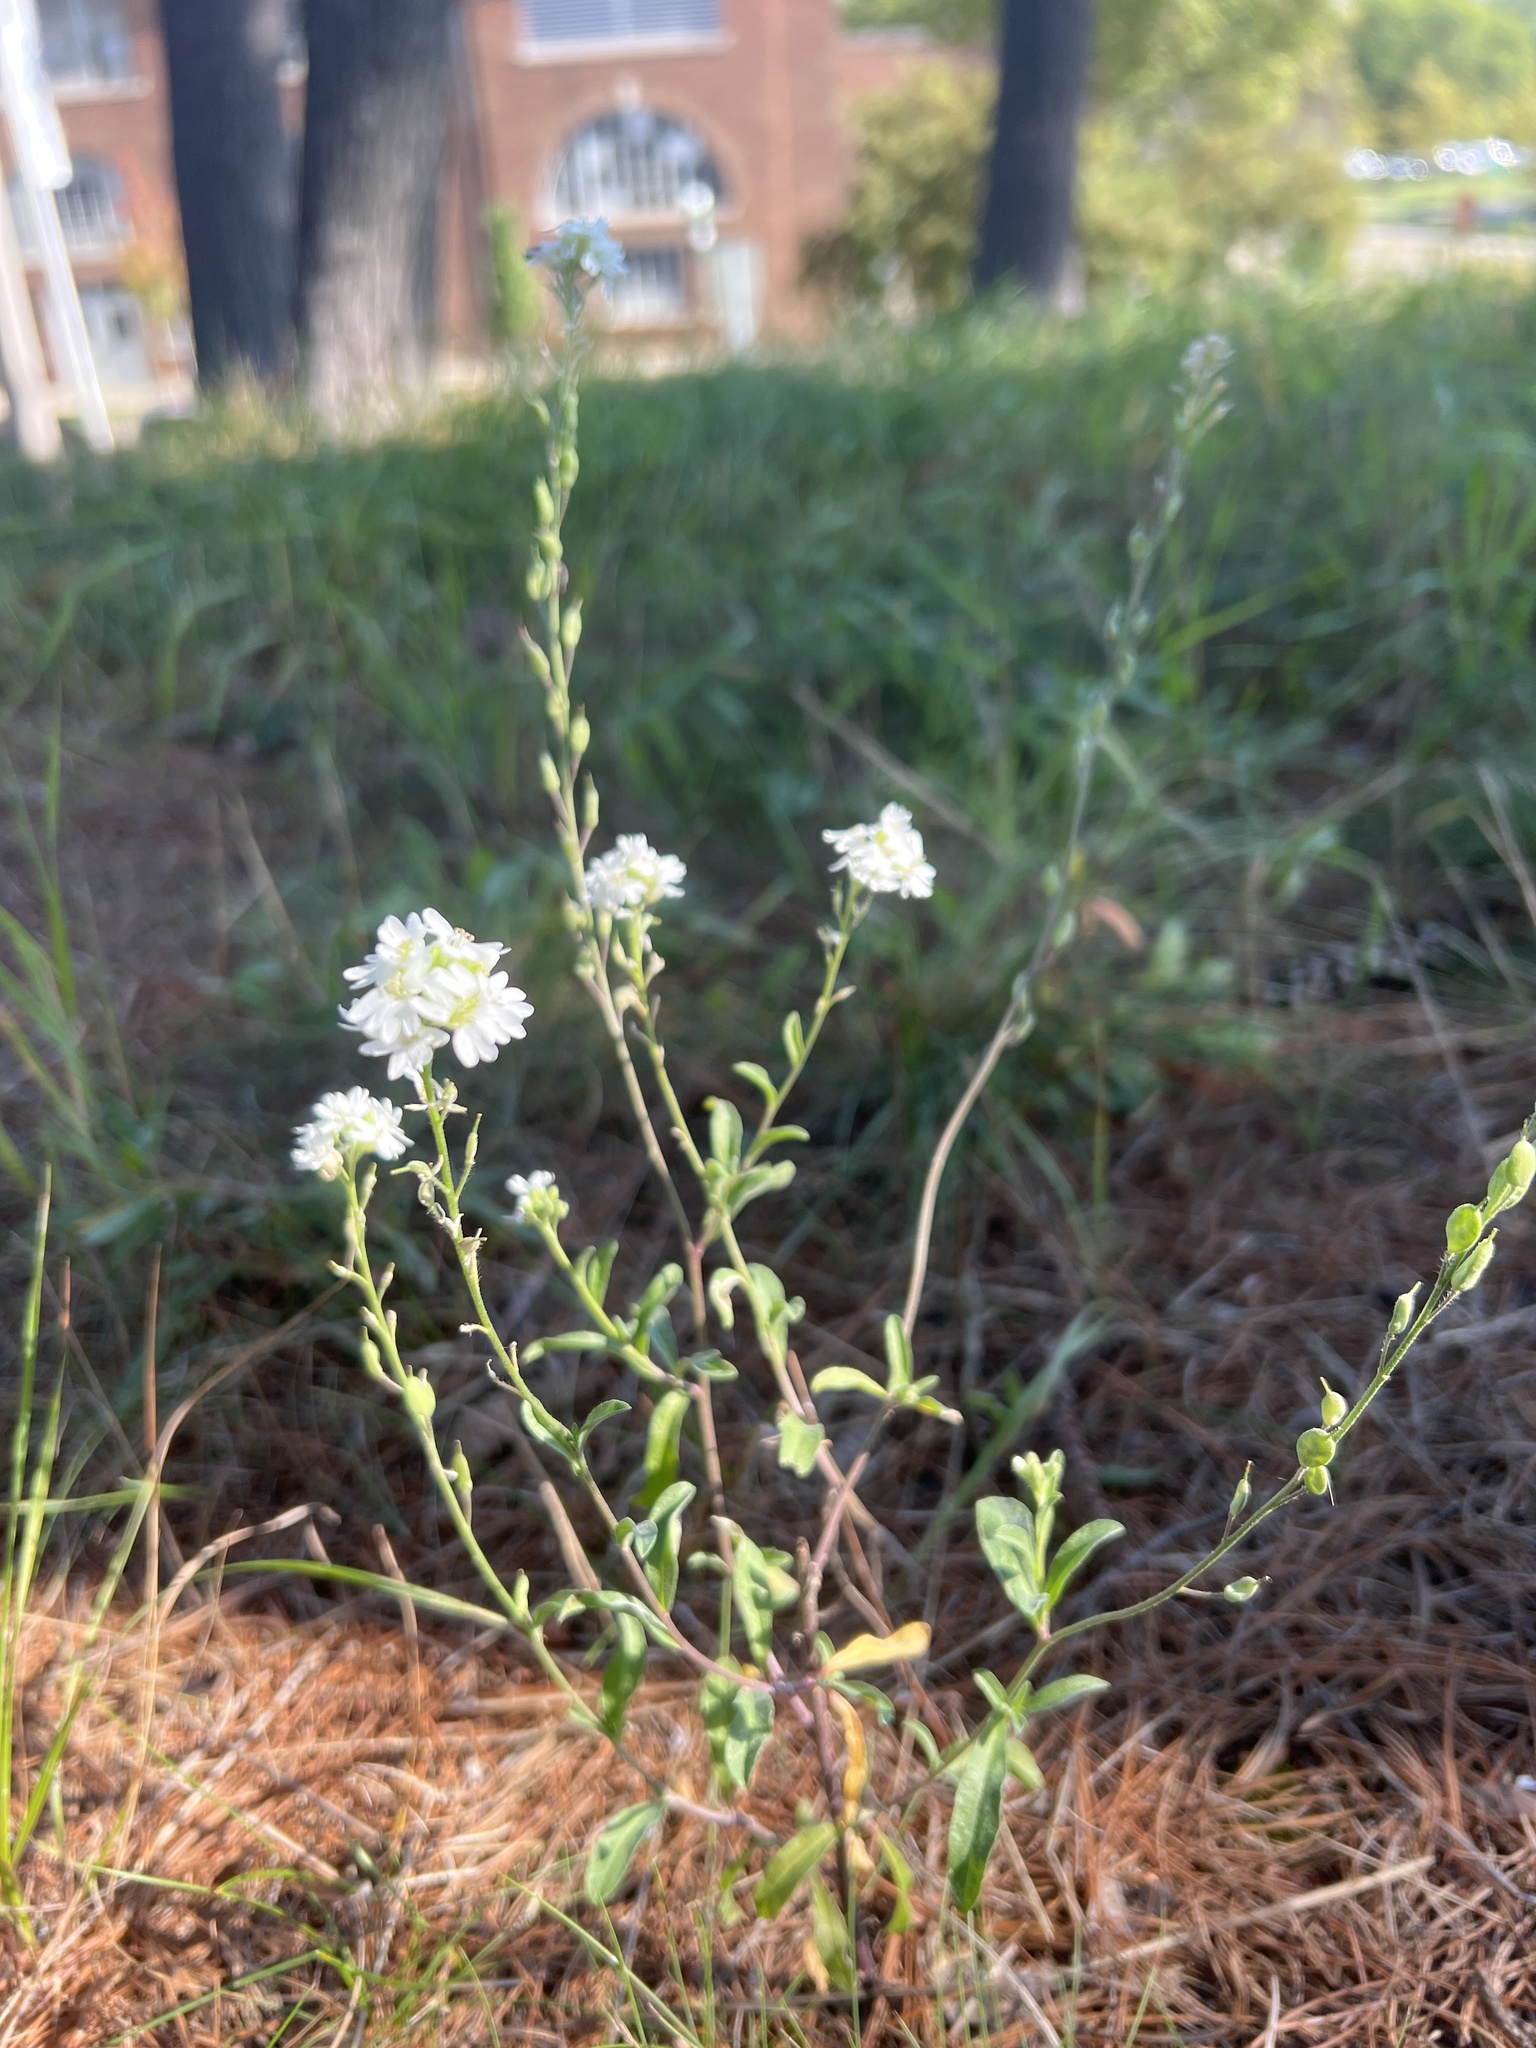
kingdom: Plantae
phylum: Tracheophyta
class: Magnoliopsida
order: Brassicales
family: Brassicaceae
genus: Berteroa
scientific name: Berteroa incana
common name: Hoary alison
